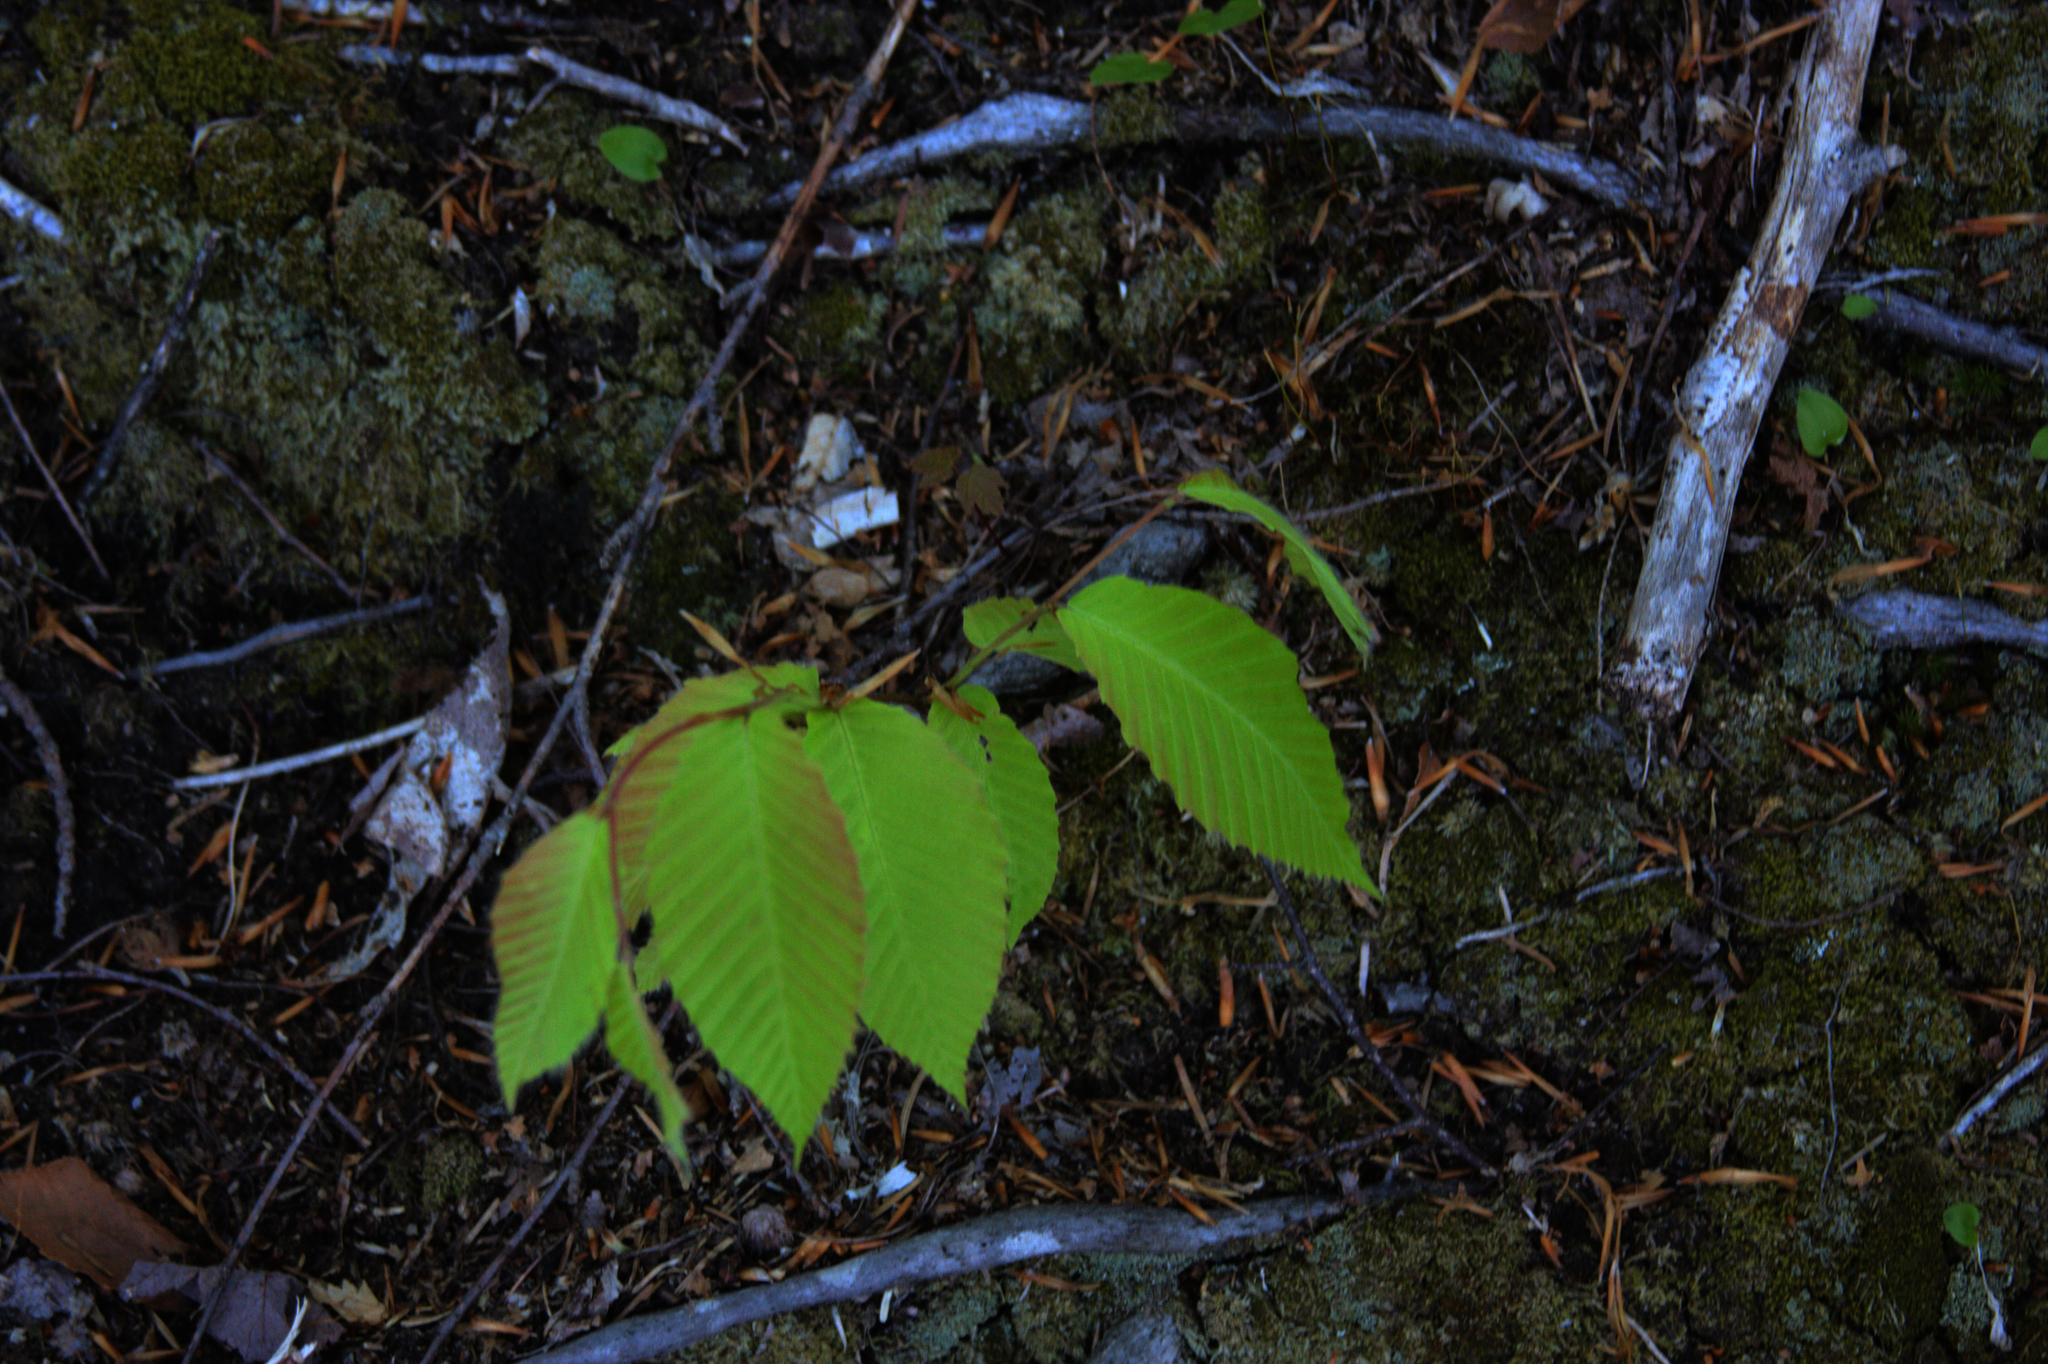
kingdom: Plantae
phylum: Tracheophyta
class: Magnoliopsida
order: Fagales
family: Fagaceae
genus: Fagus
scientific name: Fagus grandifolia
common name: American beech
